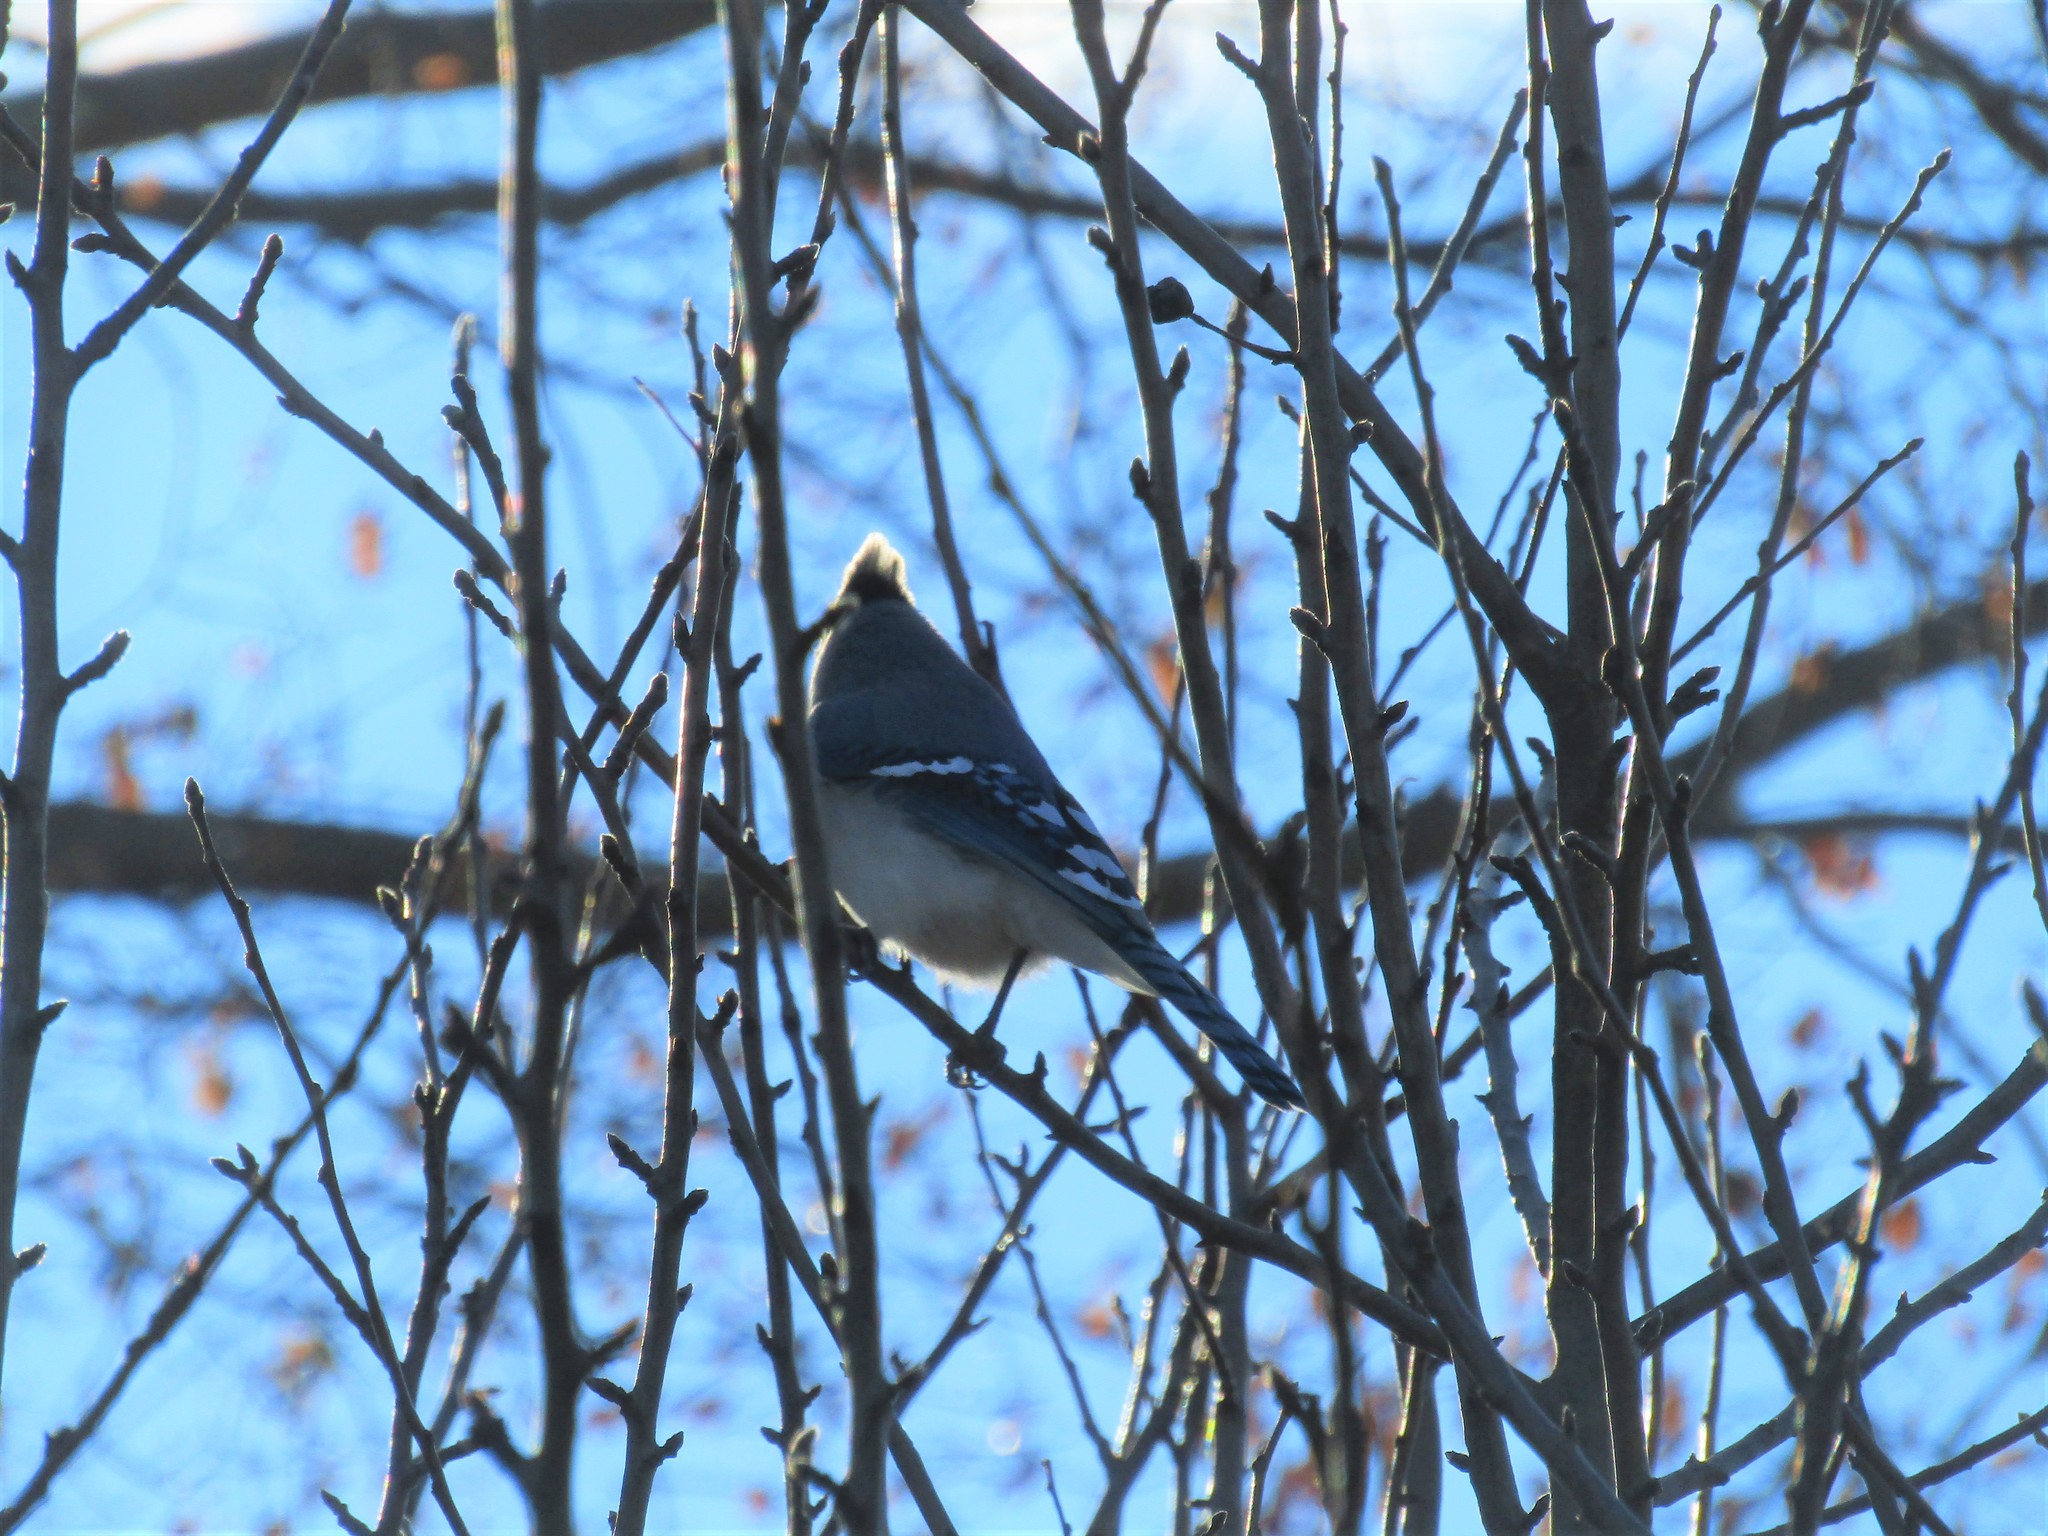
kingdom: Animalia
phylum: Chordata
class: Aves
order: Passeriformes
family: Corvidae
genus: Cyanocitta
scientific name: Cyanocitta cristata
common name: Blue jay
